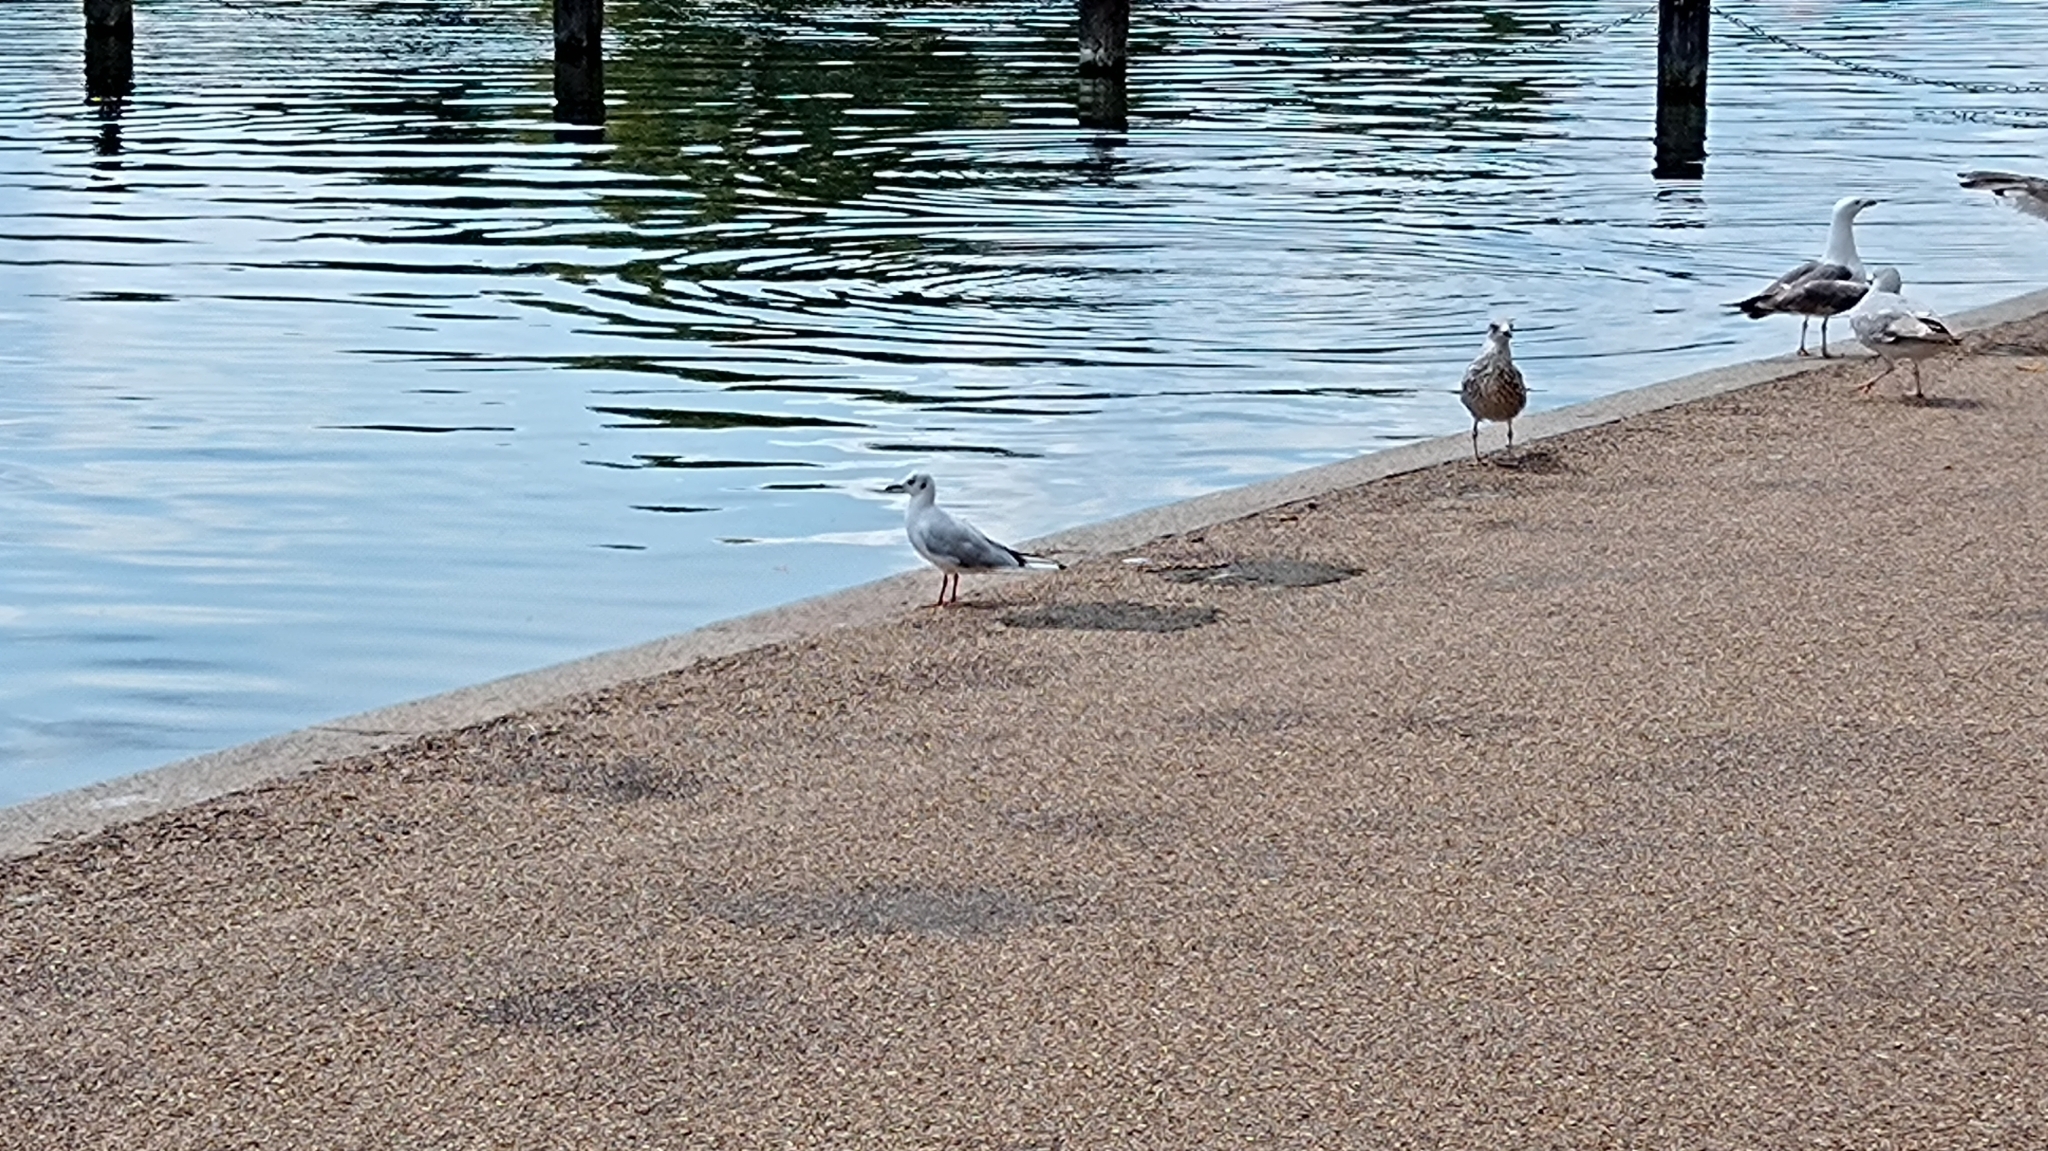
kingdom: Animalia
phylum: Chordata
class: Aves
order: Charadriiformes
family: Laridae
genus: Chroicocephalus
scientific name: Chroicocephalus ridibundus
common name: Black-headed gull
